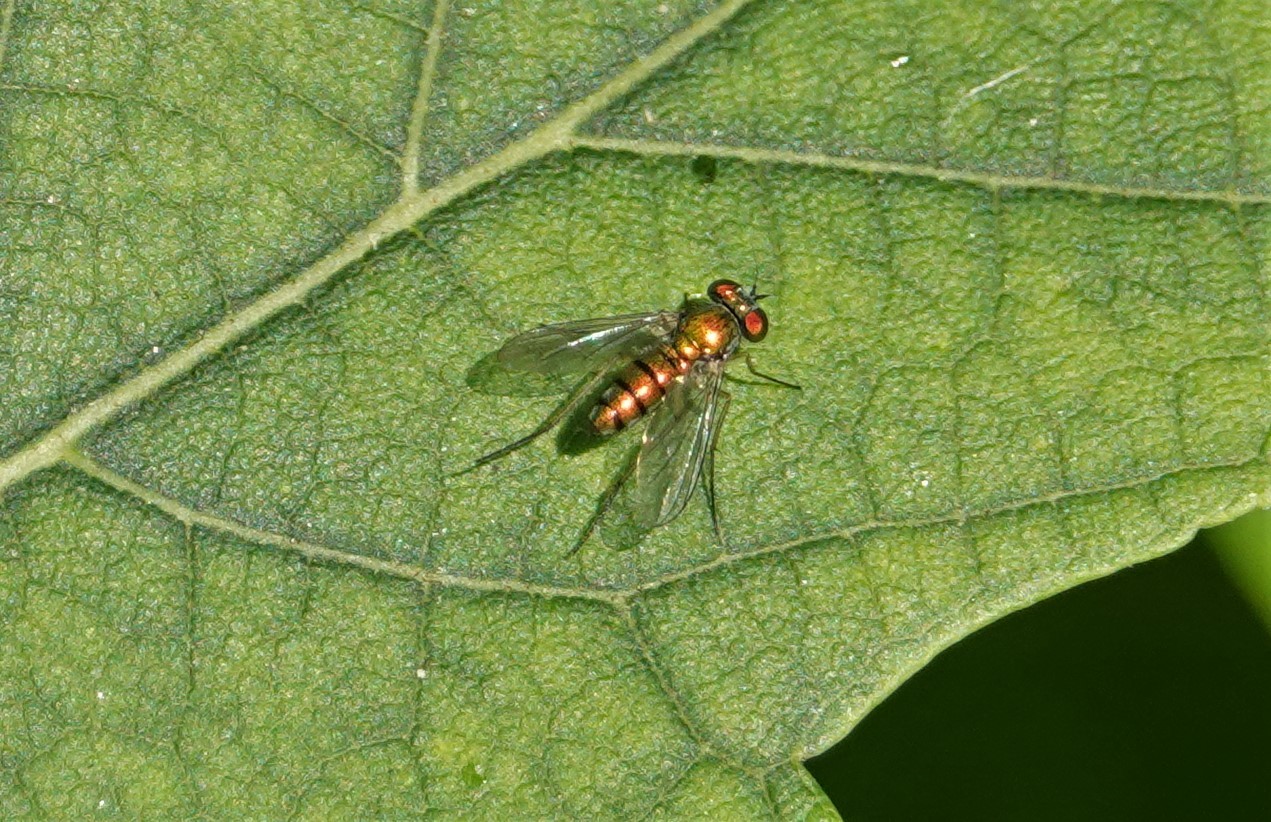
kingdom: Animalia
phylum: Arthropoda
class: Insecta
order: Diptera
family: Dolichopodidae
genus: Condylostylus
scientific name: Condylostylus
